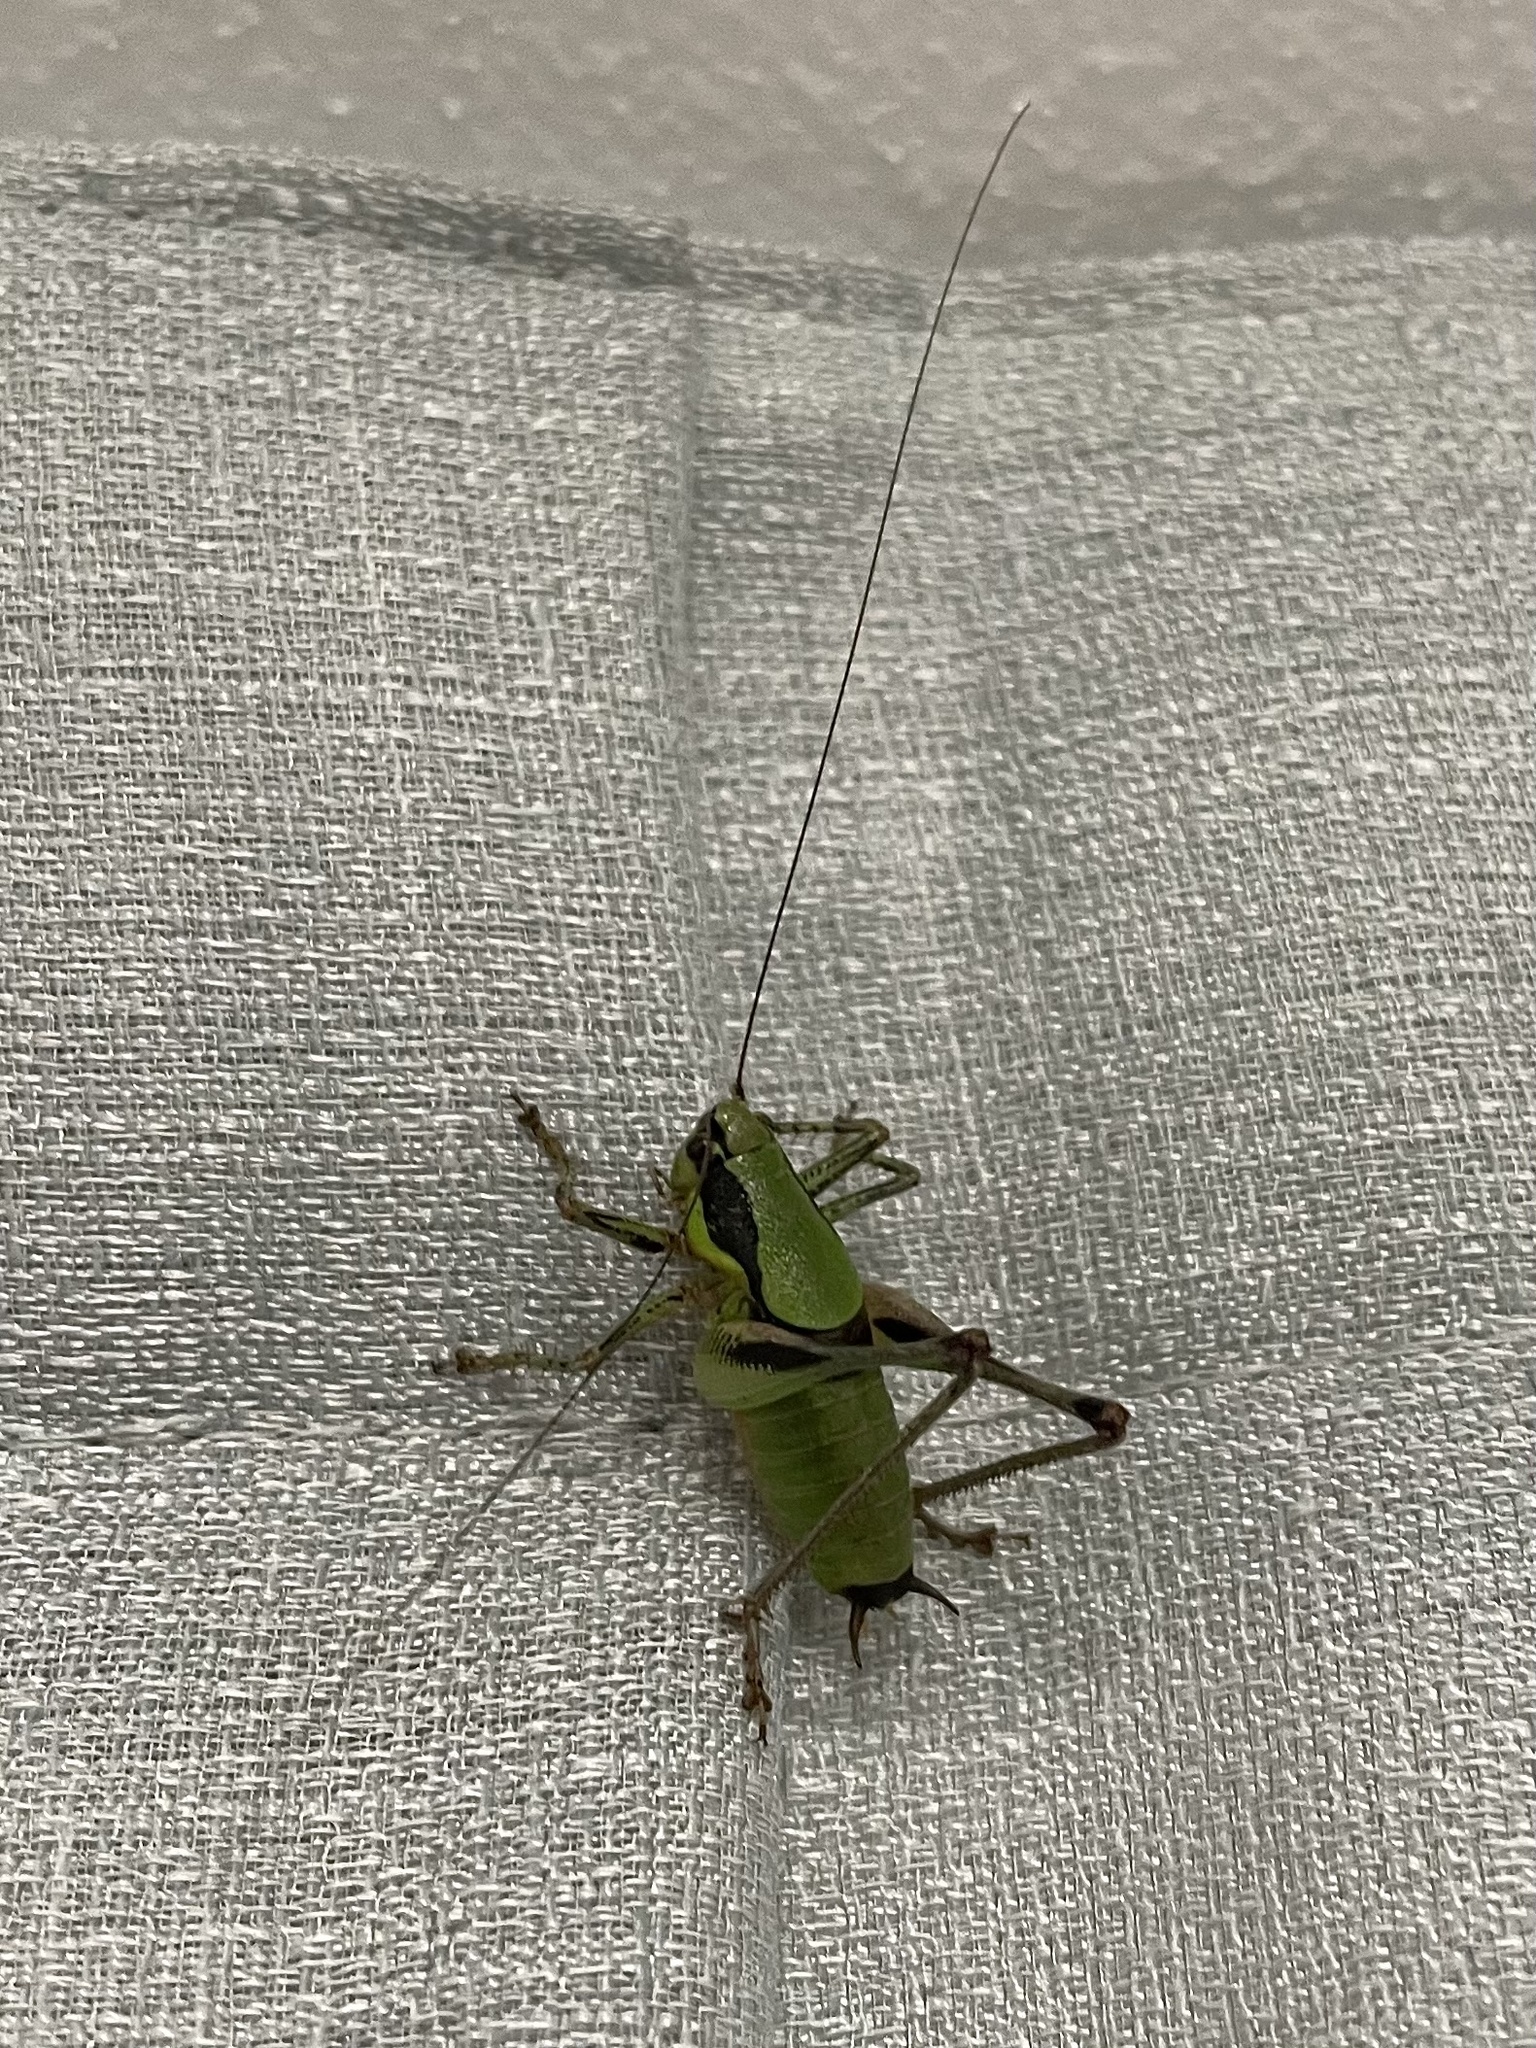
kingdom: Animalia
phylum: Arthropoda
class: Insecta
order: Orthoptera
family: Tettigoniidae
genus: Eupholidoptera
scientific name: Eupholidoptera schmidti
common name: Schmidt's marbled bush-cricket
